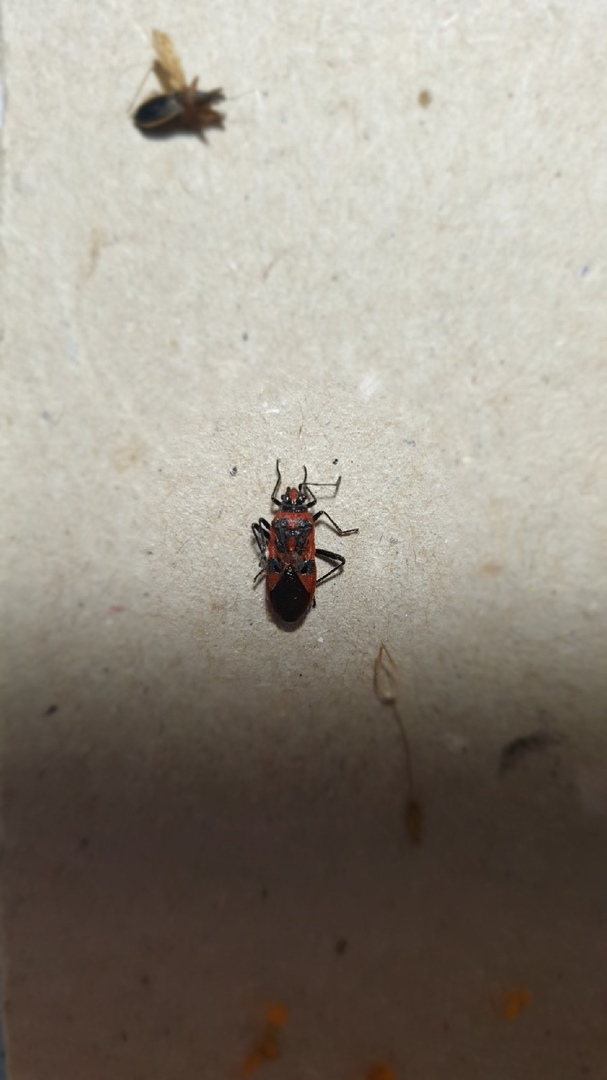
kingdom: Animalia
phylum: Arthropoda
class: Insecta
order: Hemiptera
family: Rhopalidae
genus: Corizus
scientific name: Corizus hyoscyami
